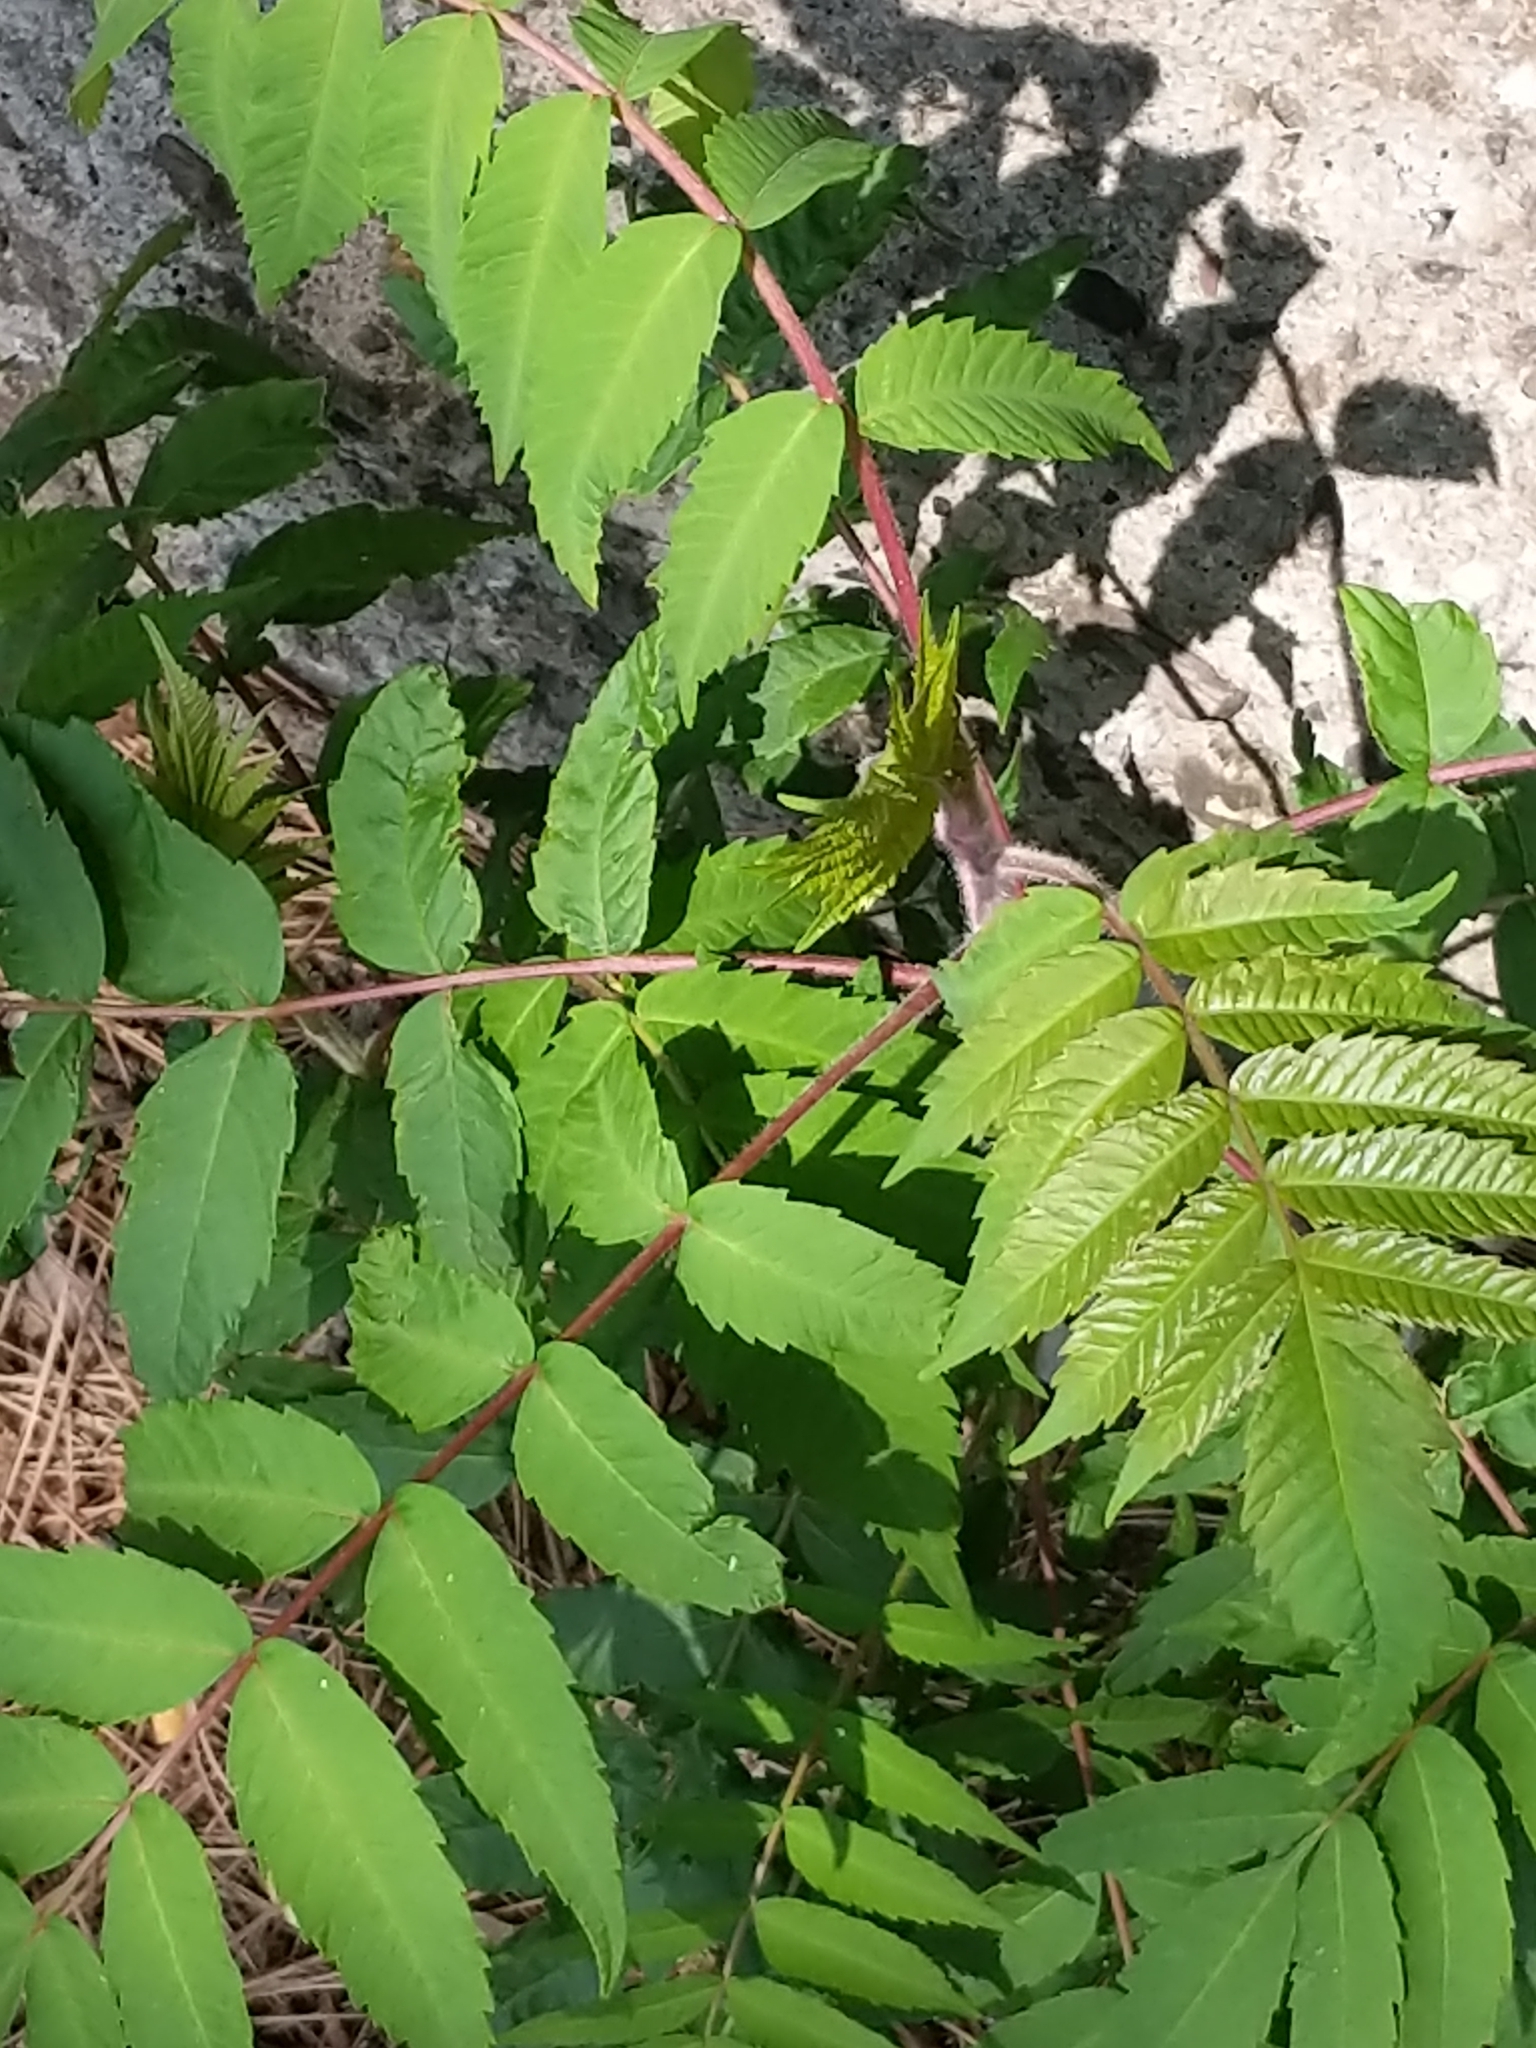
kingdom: Plantae
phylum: Tracheophyta
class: Magnoliopsida
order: Sapindales
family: Anacardiaceae
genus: Rhus
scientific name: Rhus typhina
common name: Staghorn sumac
